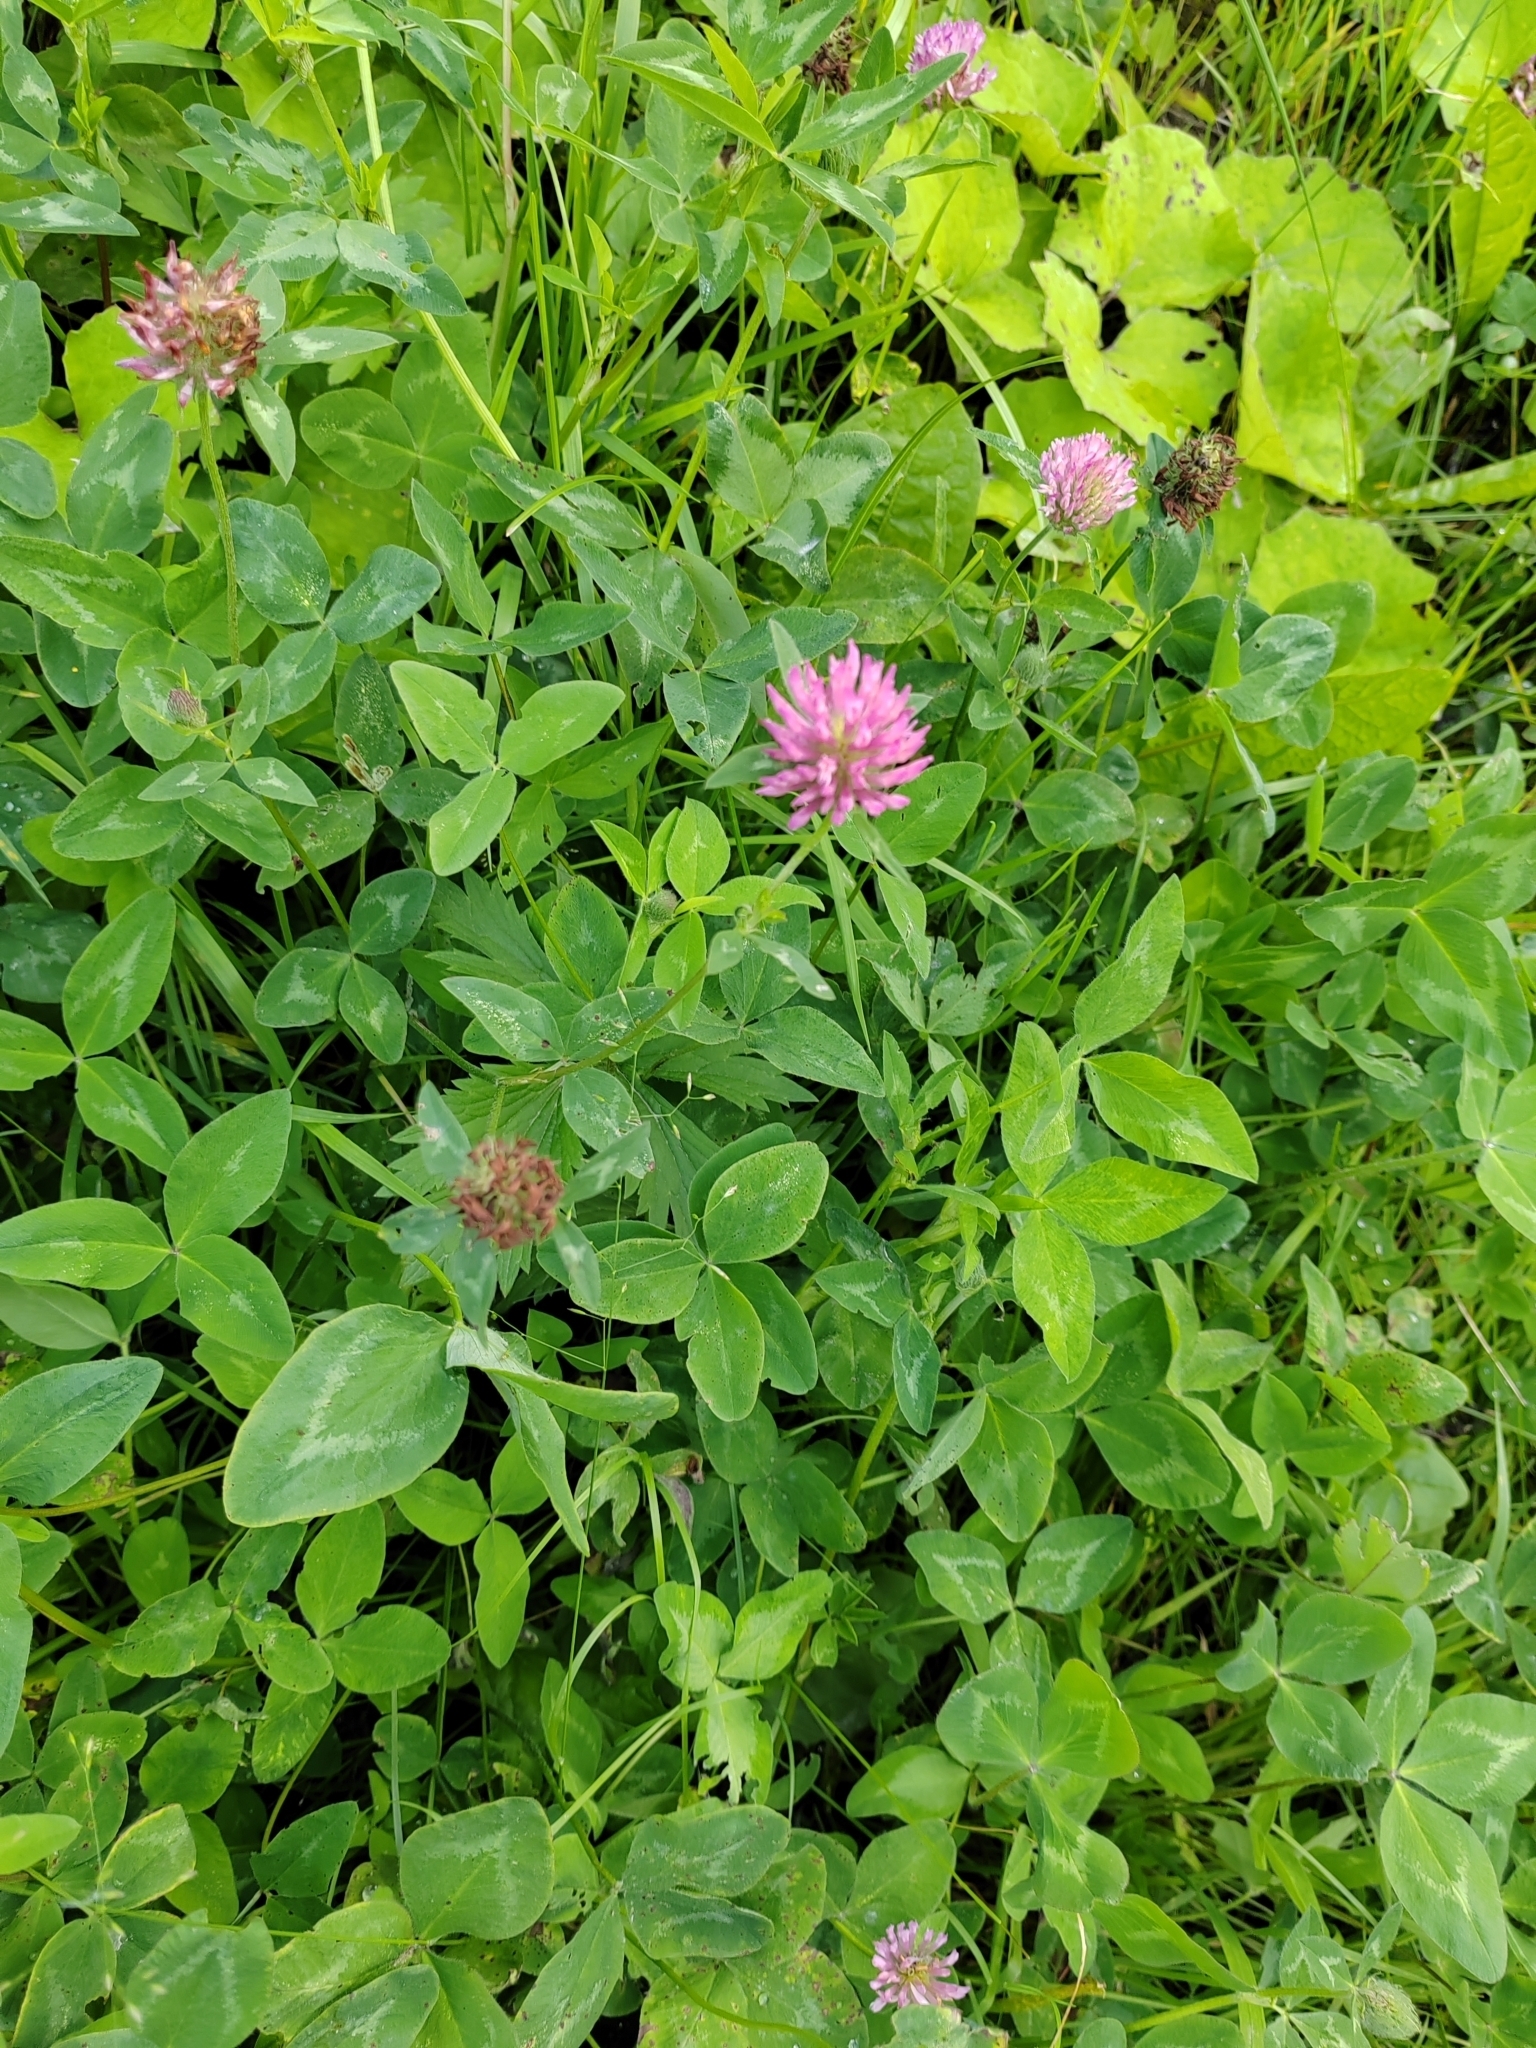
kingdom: Plantae
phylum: Tracheophyta
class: Magnoliopsida
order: Fabales
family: Fabaceae
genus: Trifolium
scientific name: Trifolium pratense
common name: Red clover
